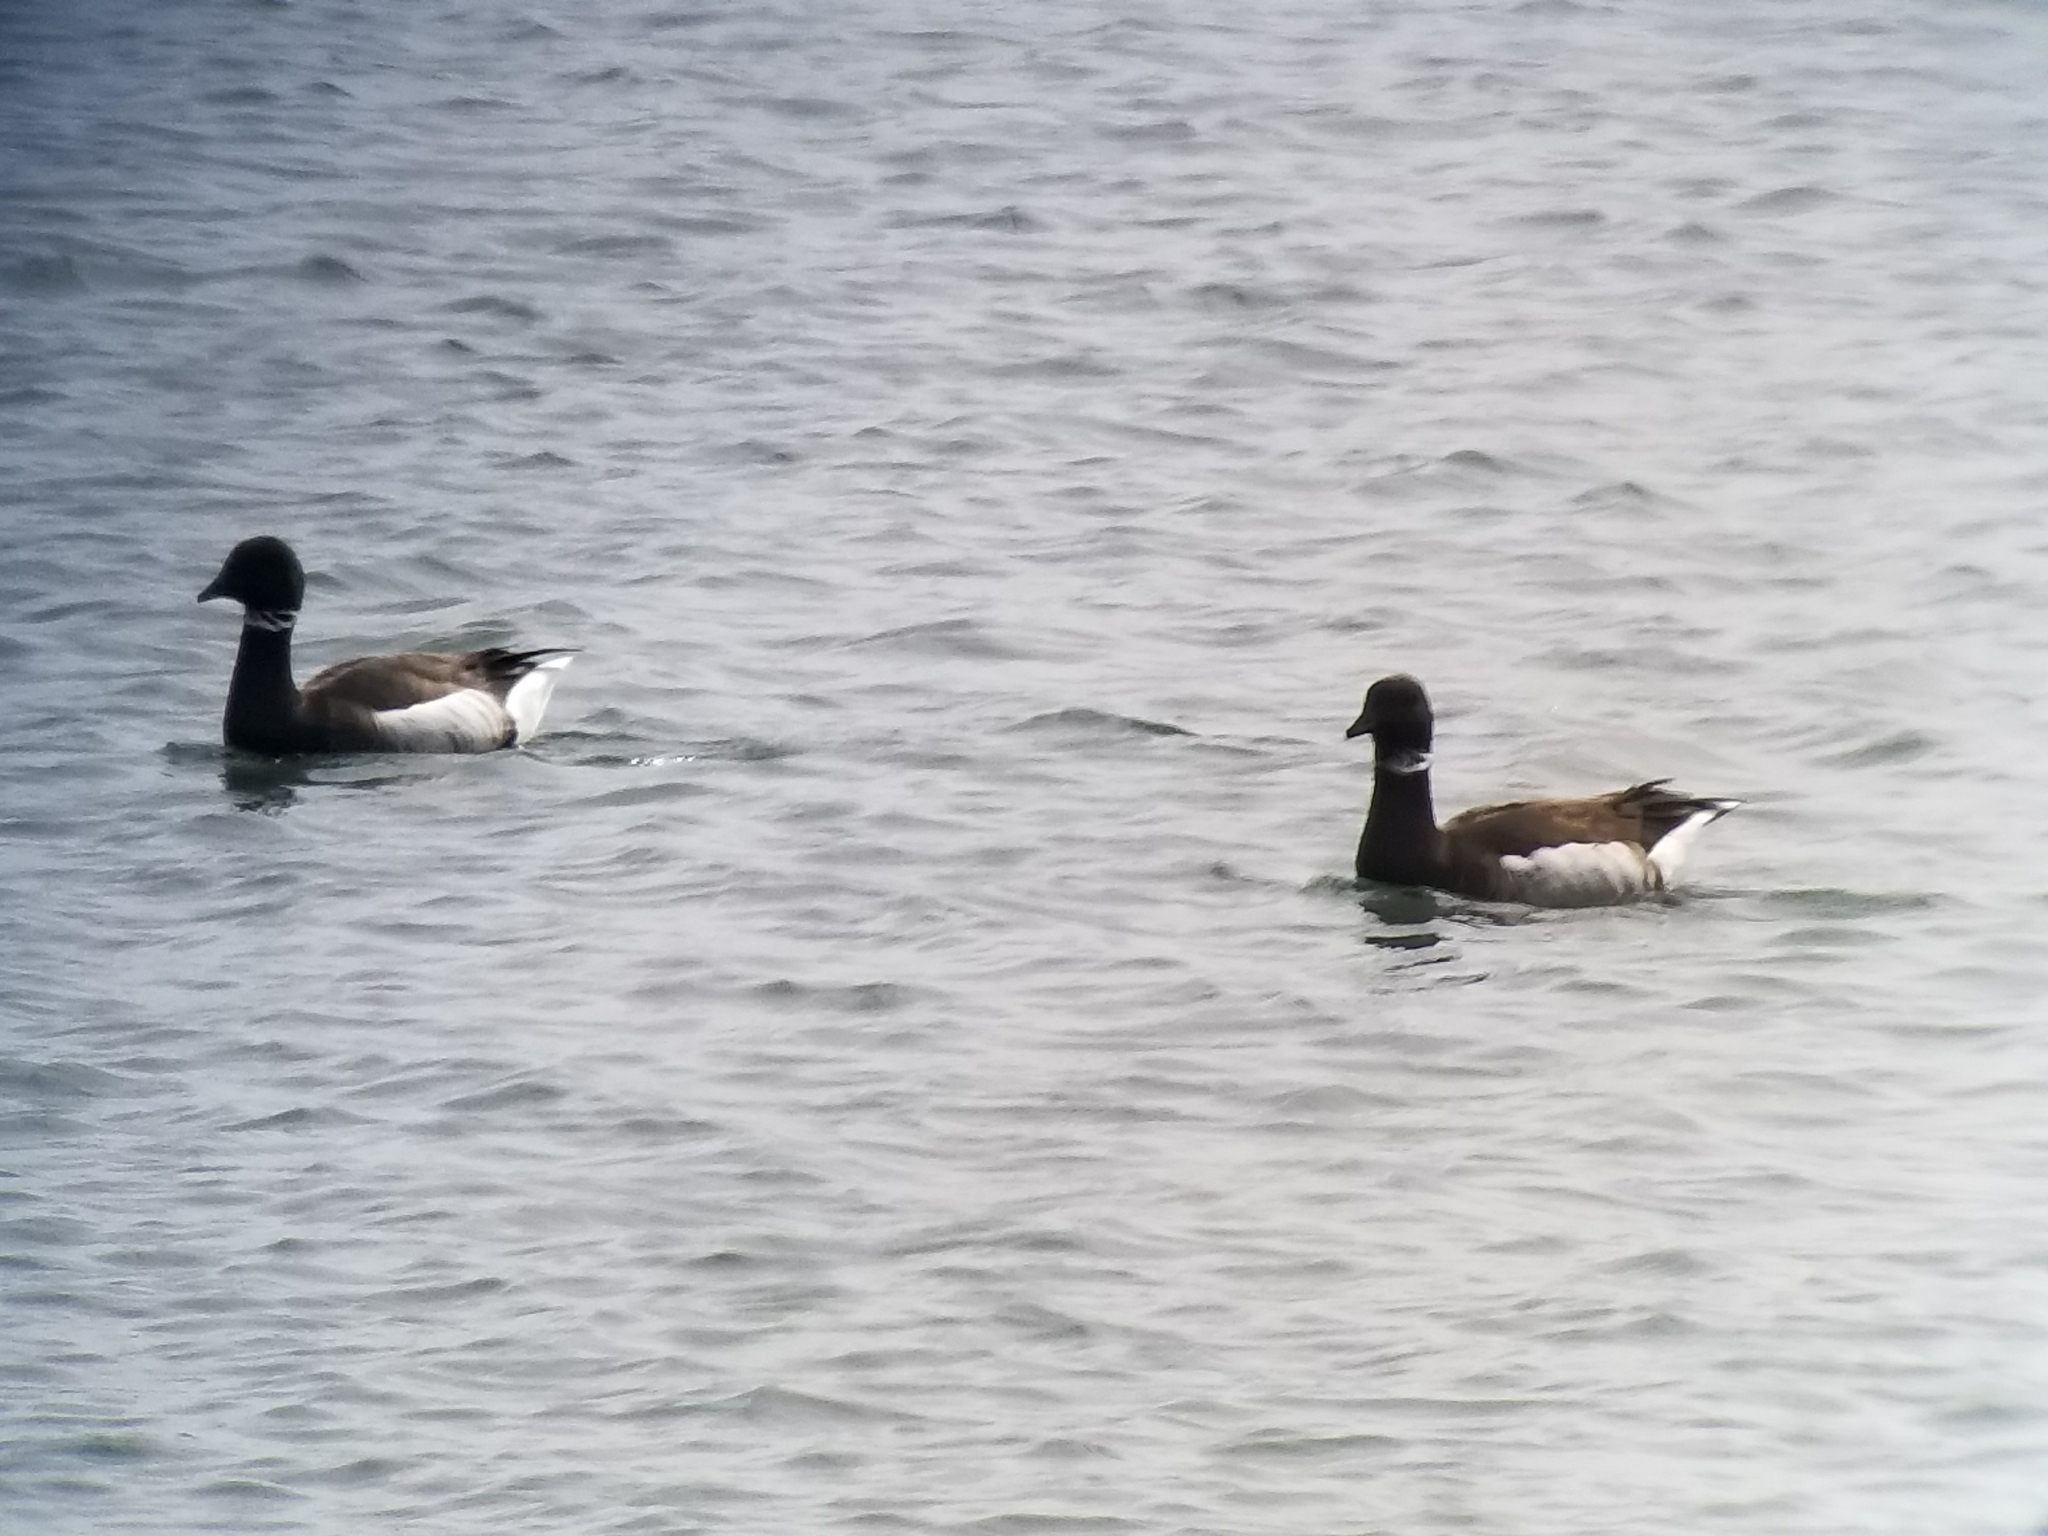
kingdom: Animalia
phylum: Chordata
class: Aves
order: Anseriformes
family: Anatidae
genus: Branta
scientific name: Branta bernicla
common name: Brant goose
